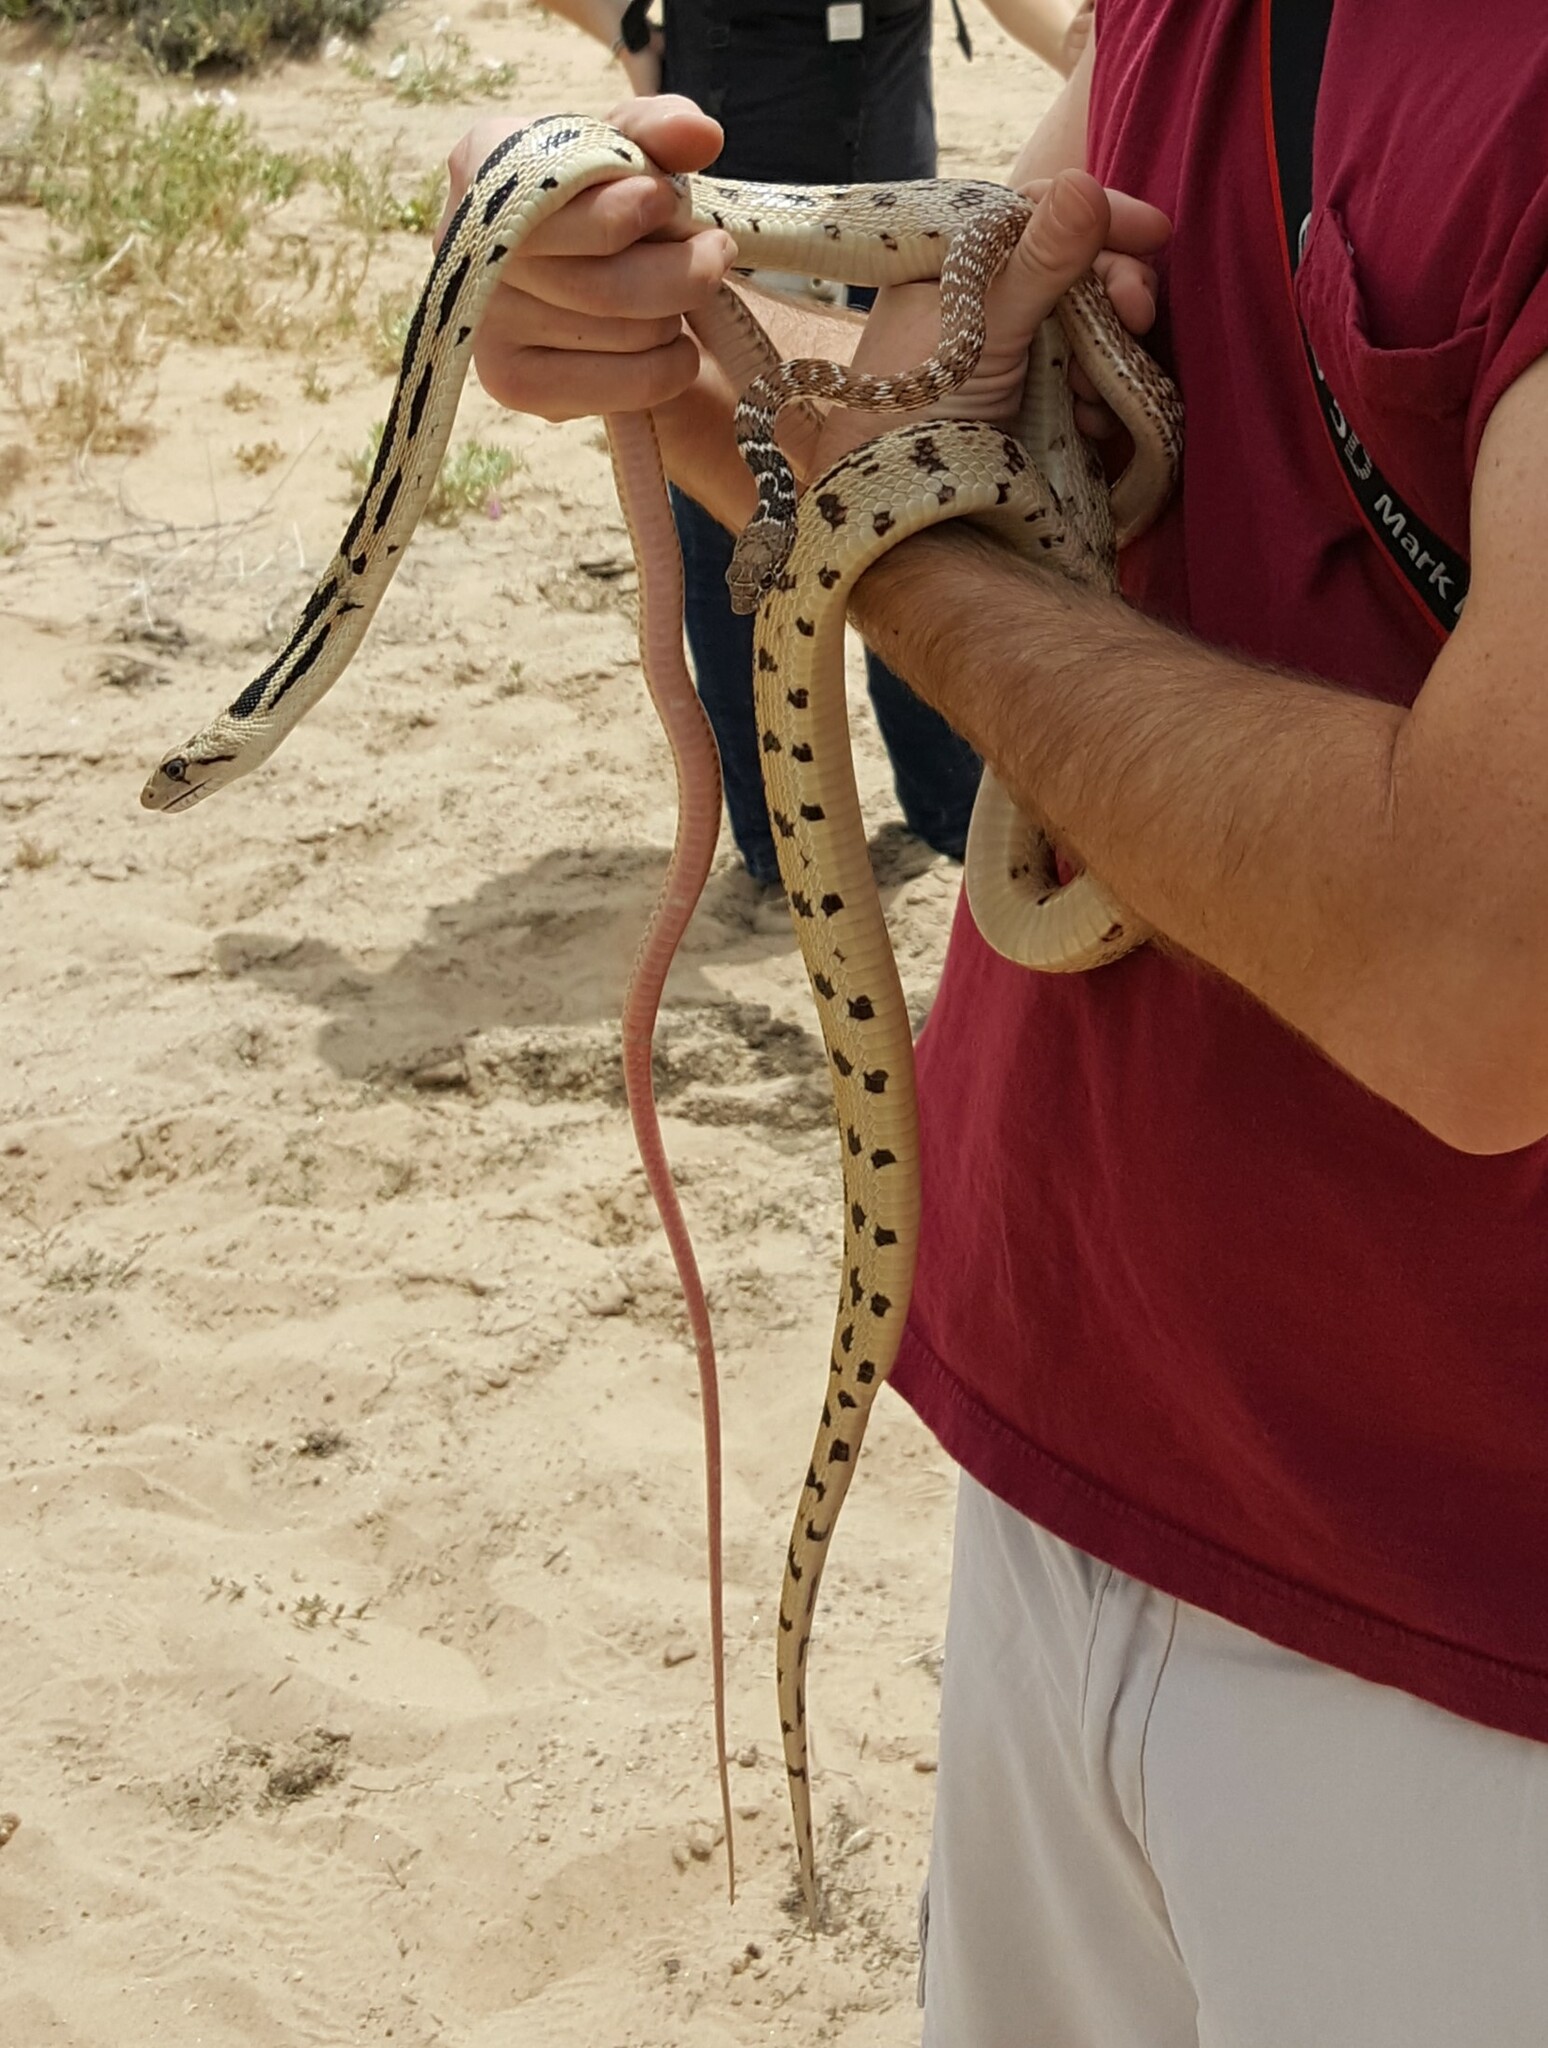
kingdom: Animalia
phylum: Chordata
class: Squamata
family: Colubridae
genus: Pituophis
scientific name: Pituophis catenifer
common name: Gopher snake
